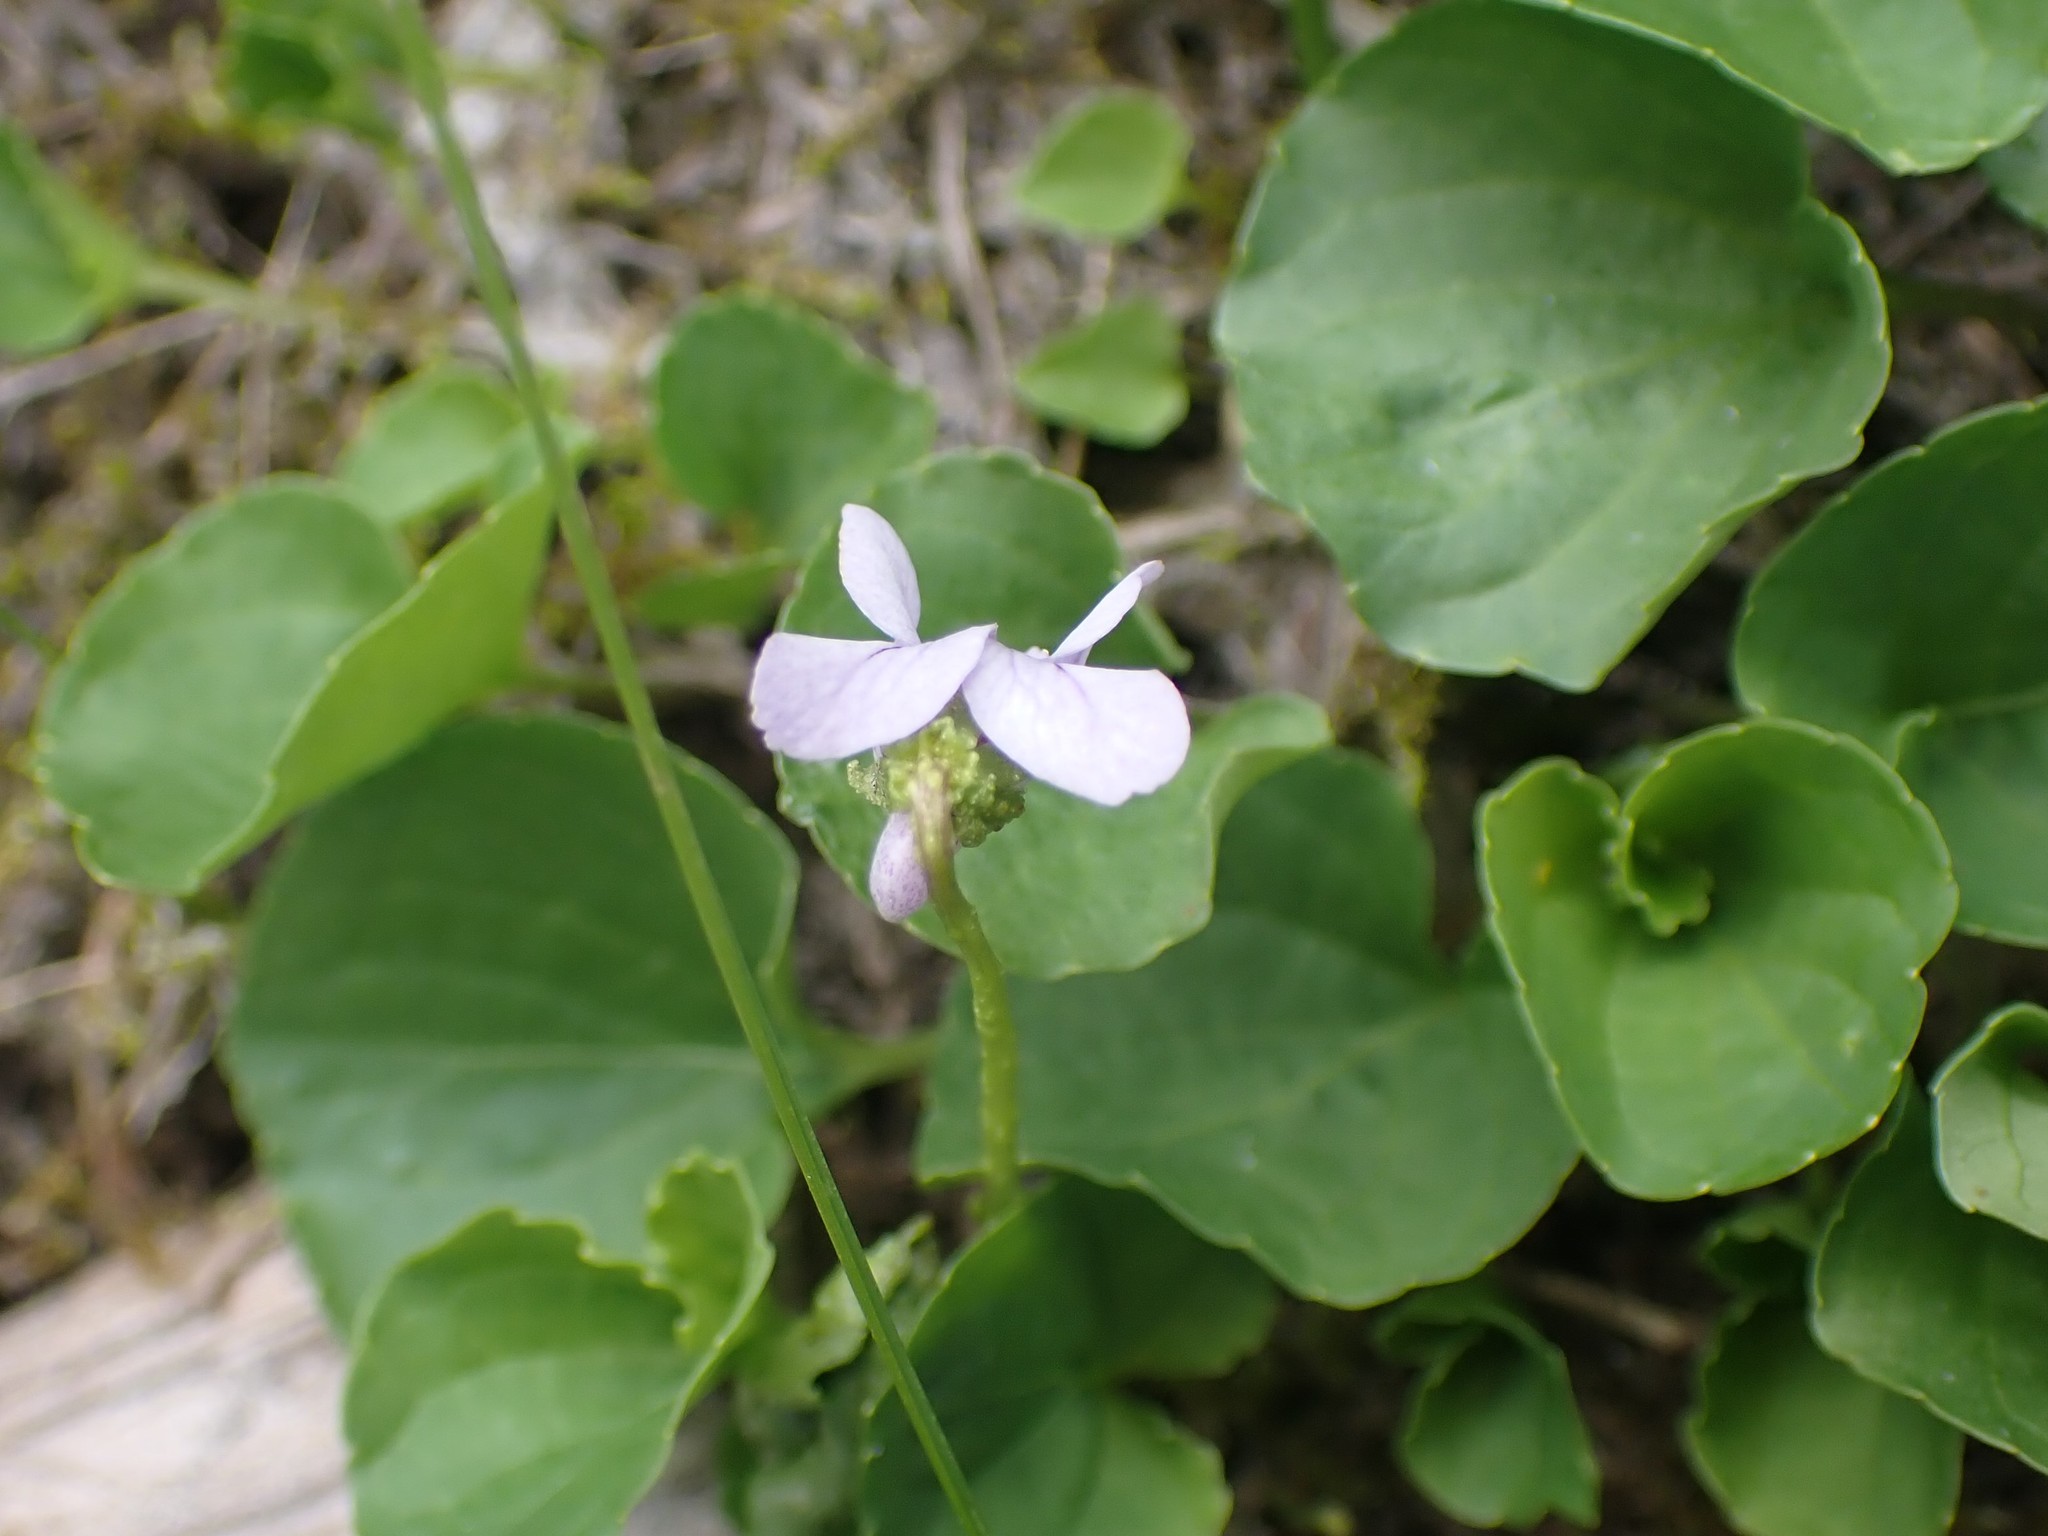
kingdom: Plantae
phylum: Tracheophyta
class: Magnoliopsida
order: Malpighiales
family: Violaceae
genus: Viola
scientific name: Viola palustris
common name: Marsh violet
